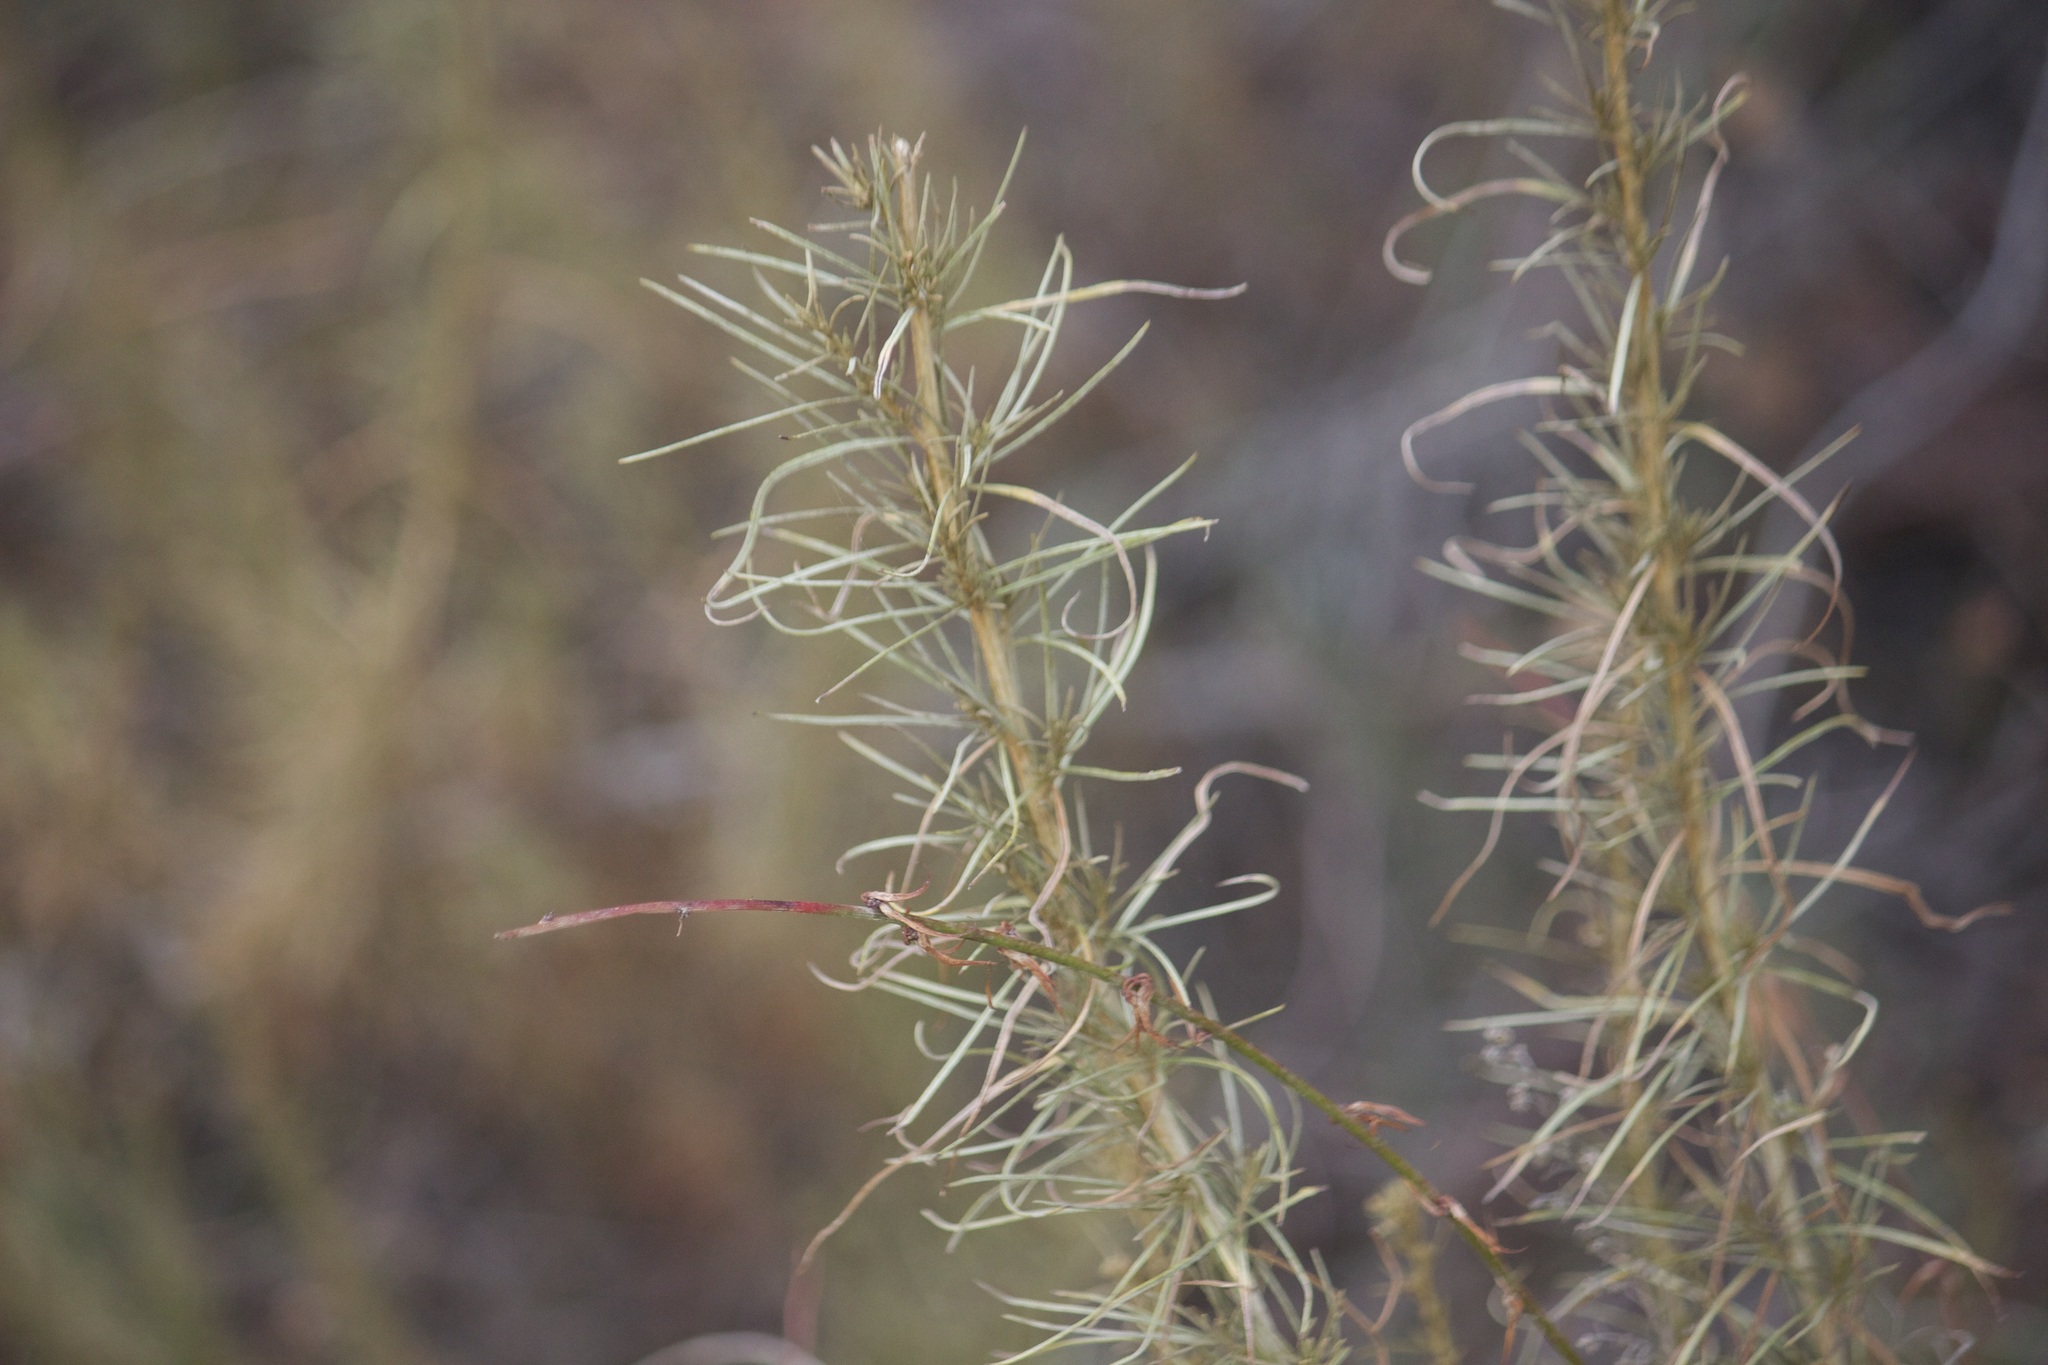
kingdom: Plantae
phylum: Tracheophyta
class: Magnoliopsida
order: Asterales
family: Asteraceae
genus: Artemisia
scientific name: Artemisia californica
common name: California sagebrush
